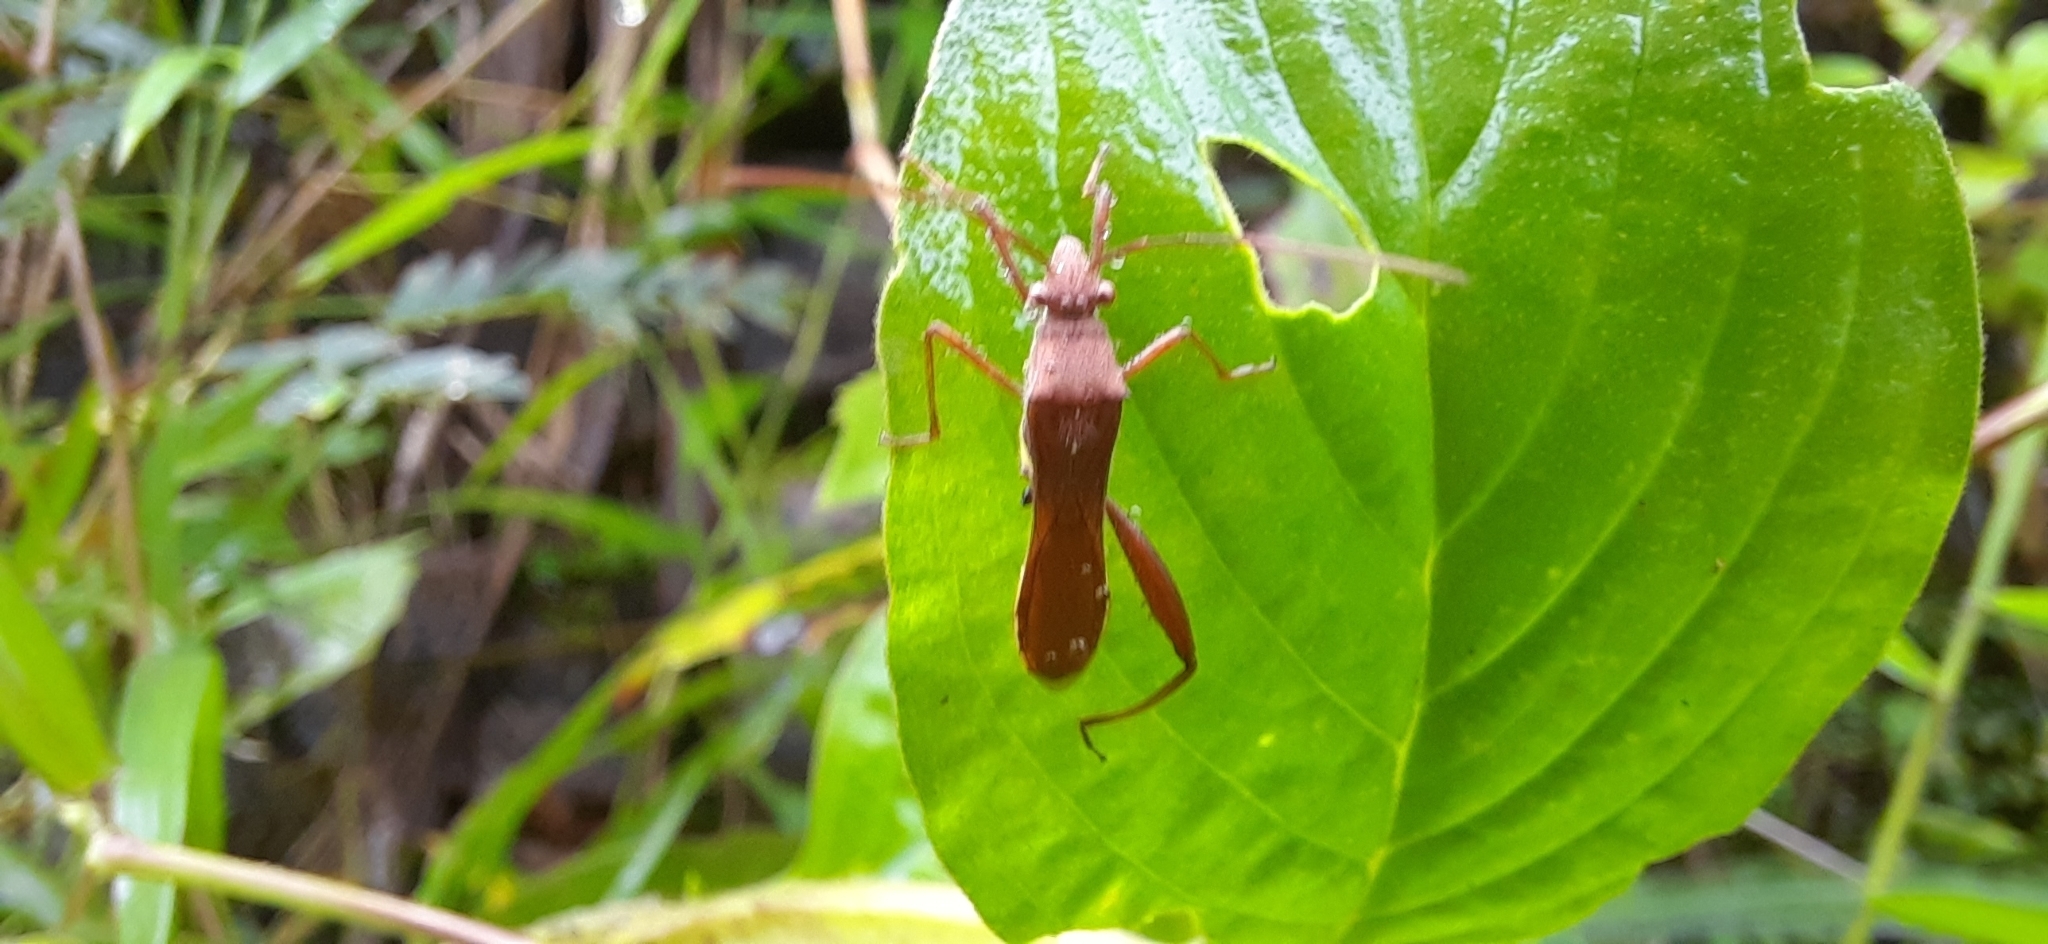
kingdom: Animalia
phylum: Arthropoda
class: Insecta
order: Hemiptera
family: Alydidae
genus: Riptortus
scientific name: Riptortus pedestris
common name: Bean bug
